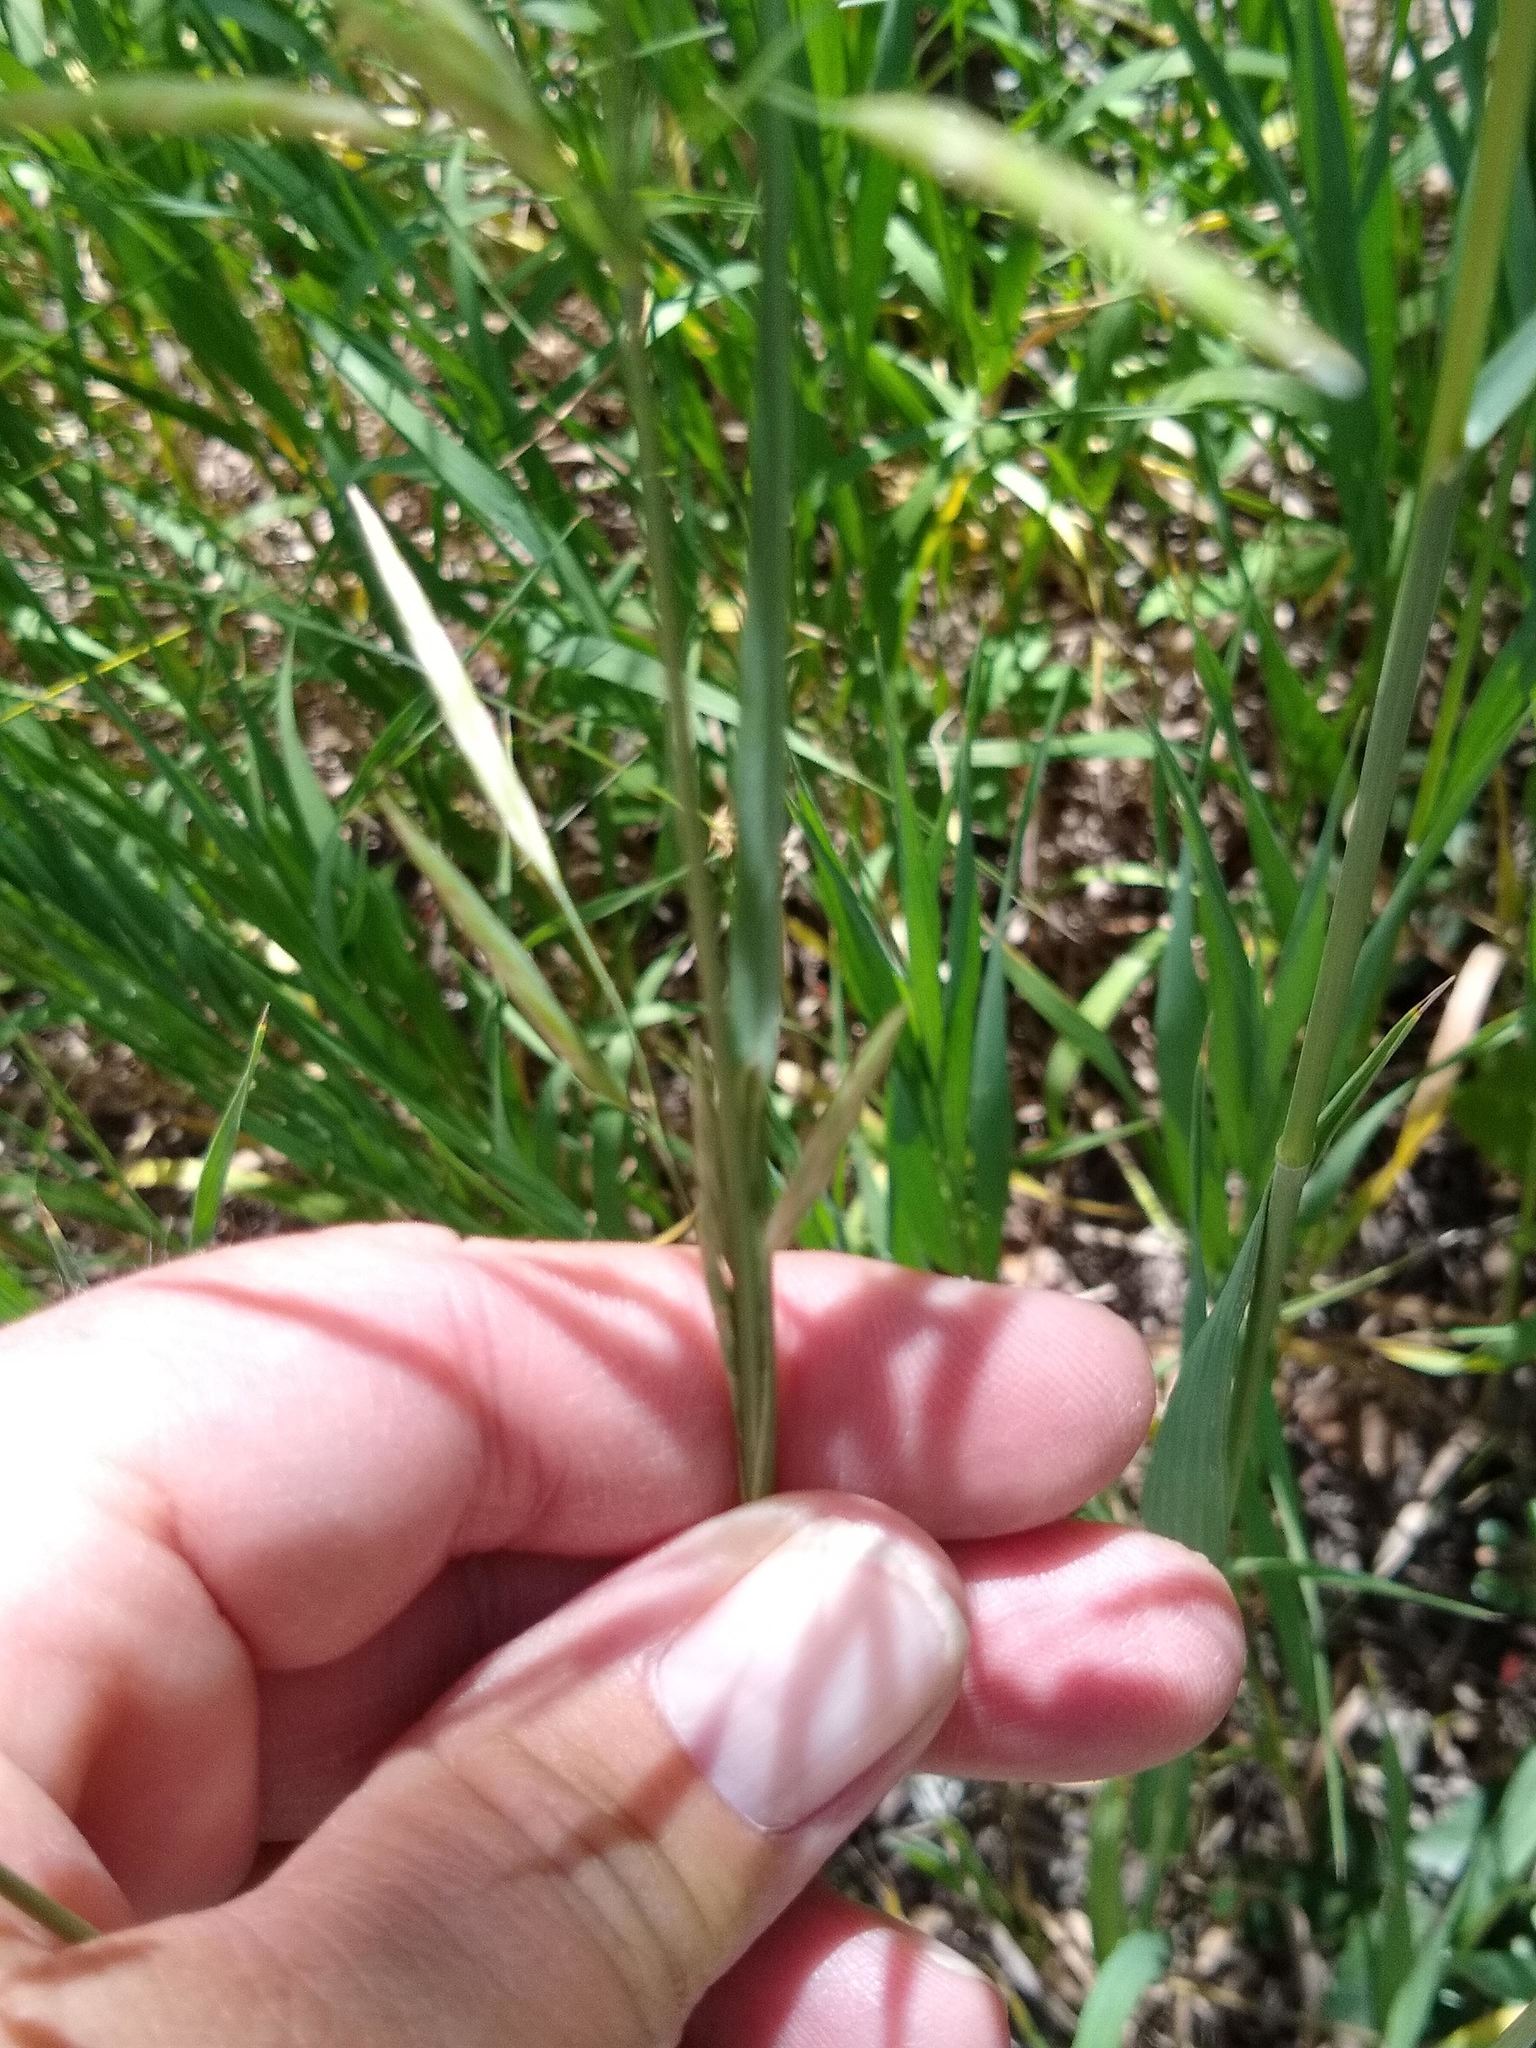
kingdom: Plantae
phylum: Tracheophyta
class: Liliopsida
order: Poales
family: Poaceae
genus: Bromus
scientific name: Bromus inermis
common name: Smooth brome
